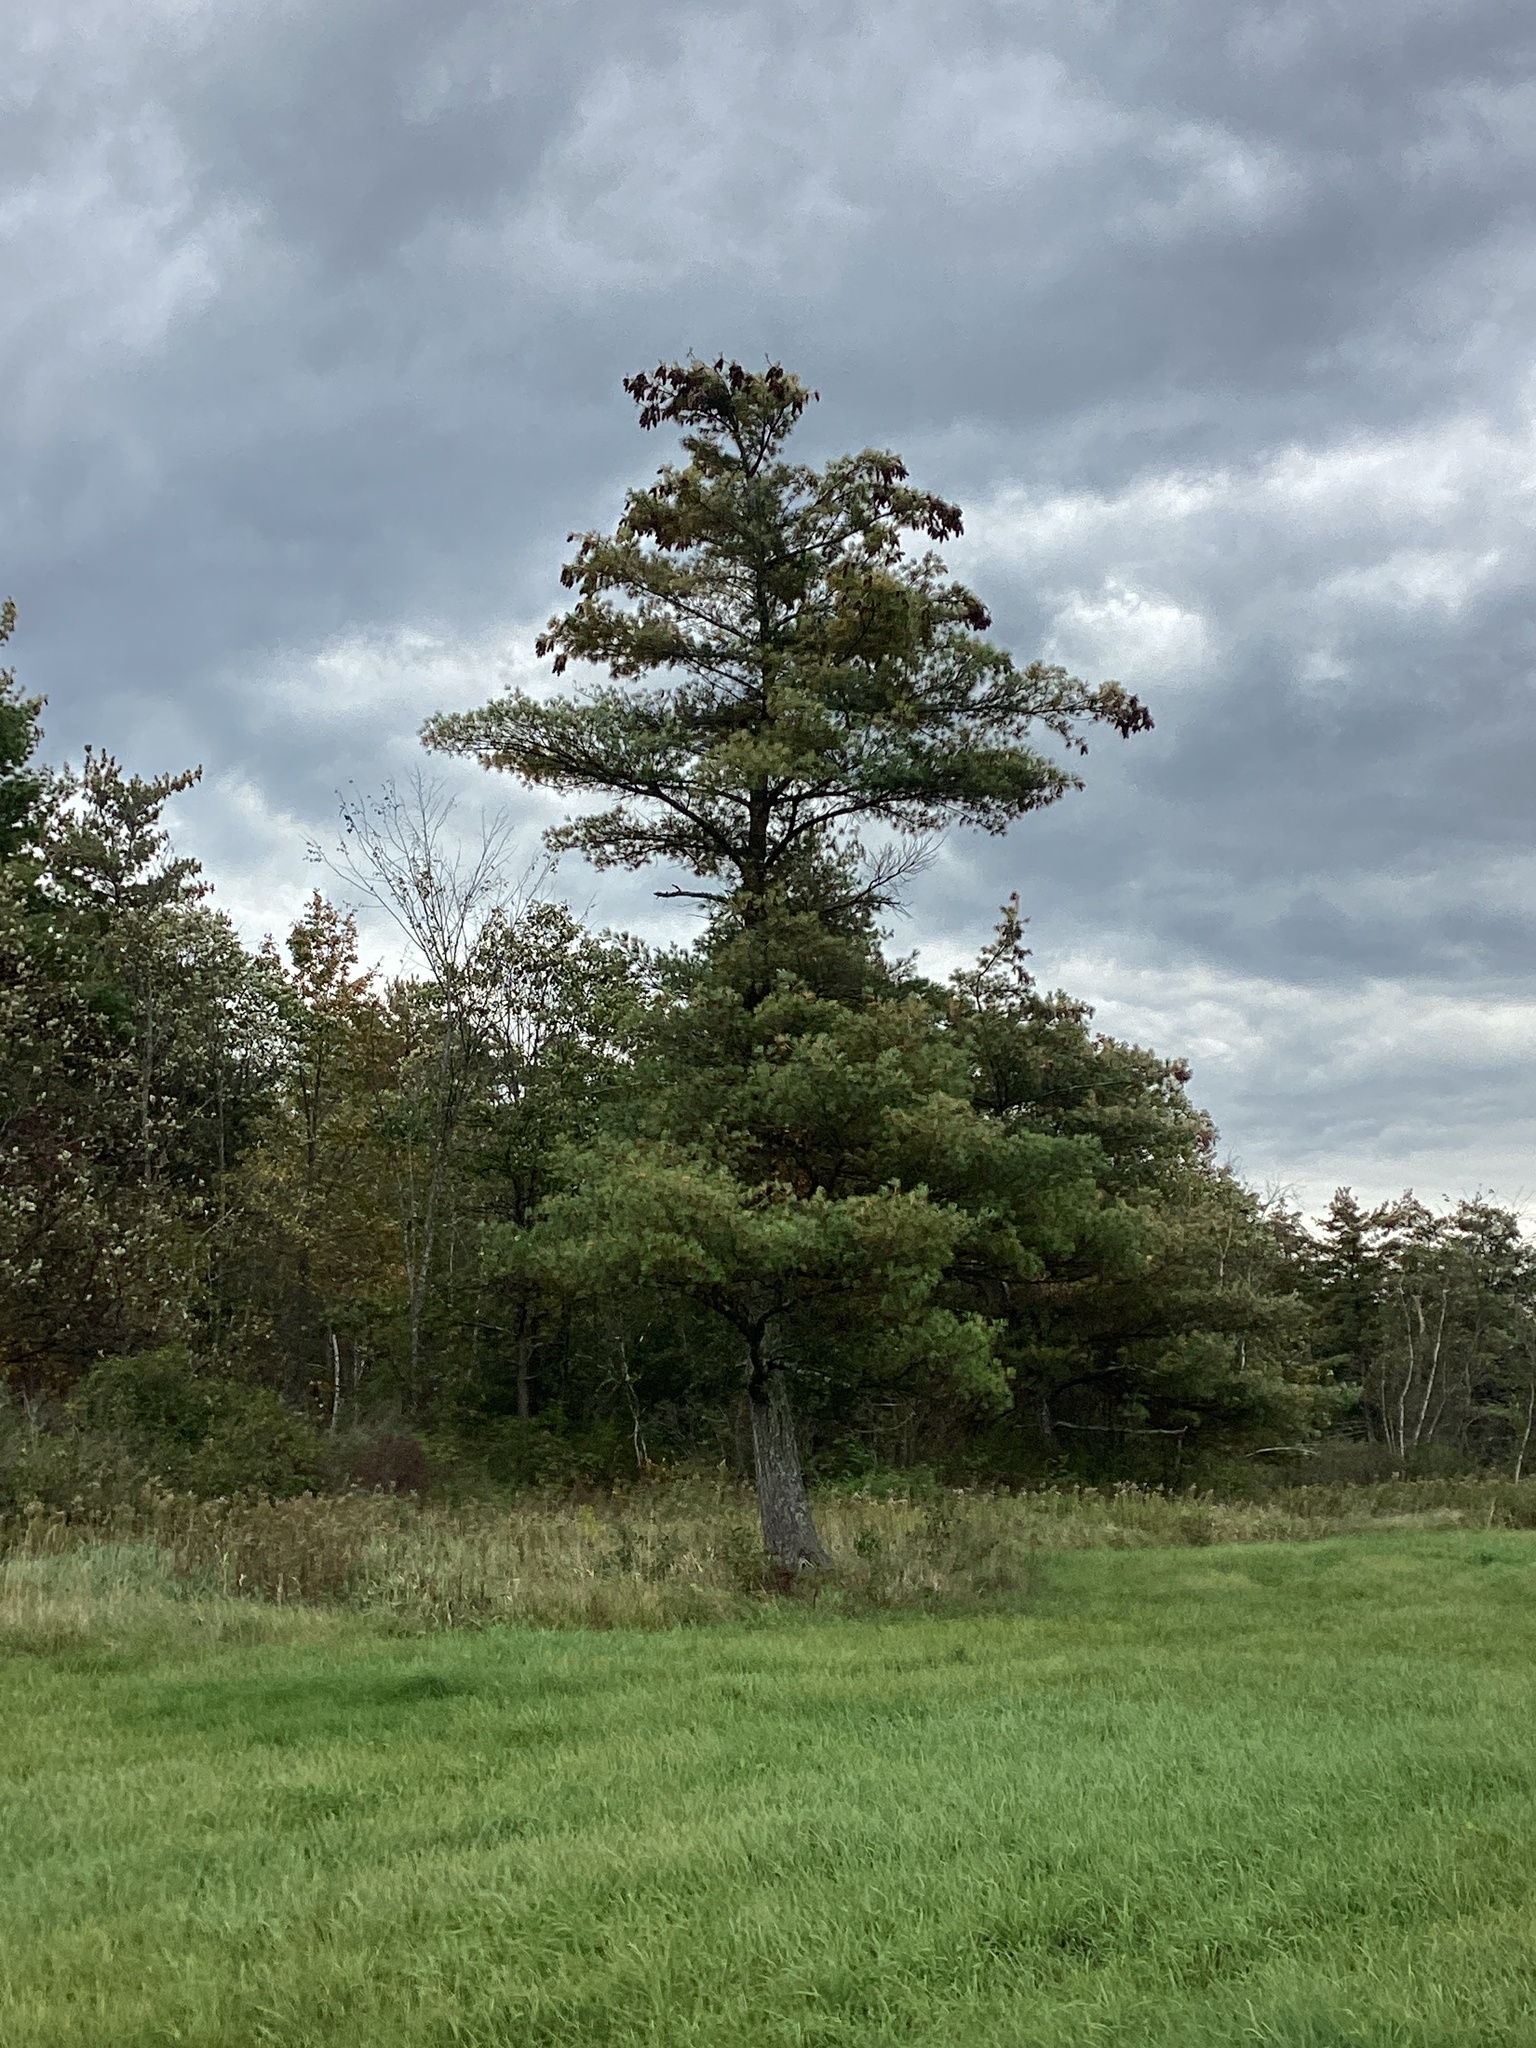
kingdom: Plantae
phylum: Tracheophyta
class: Pinopsida
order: Pinales
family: Pinaceae
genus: Pinus
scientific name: Pinus strobus
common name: Weymouth pine
